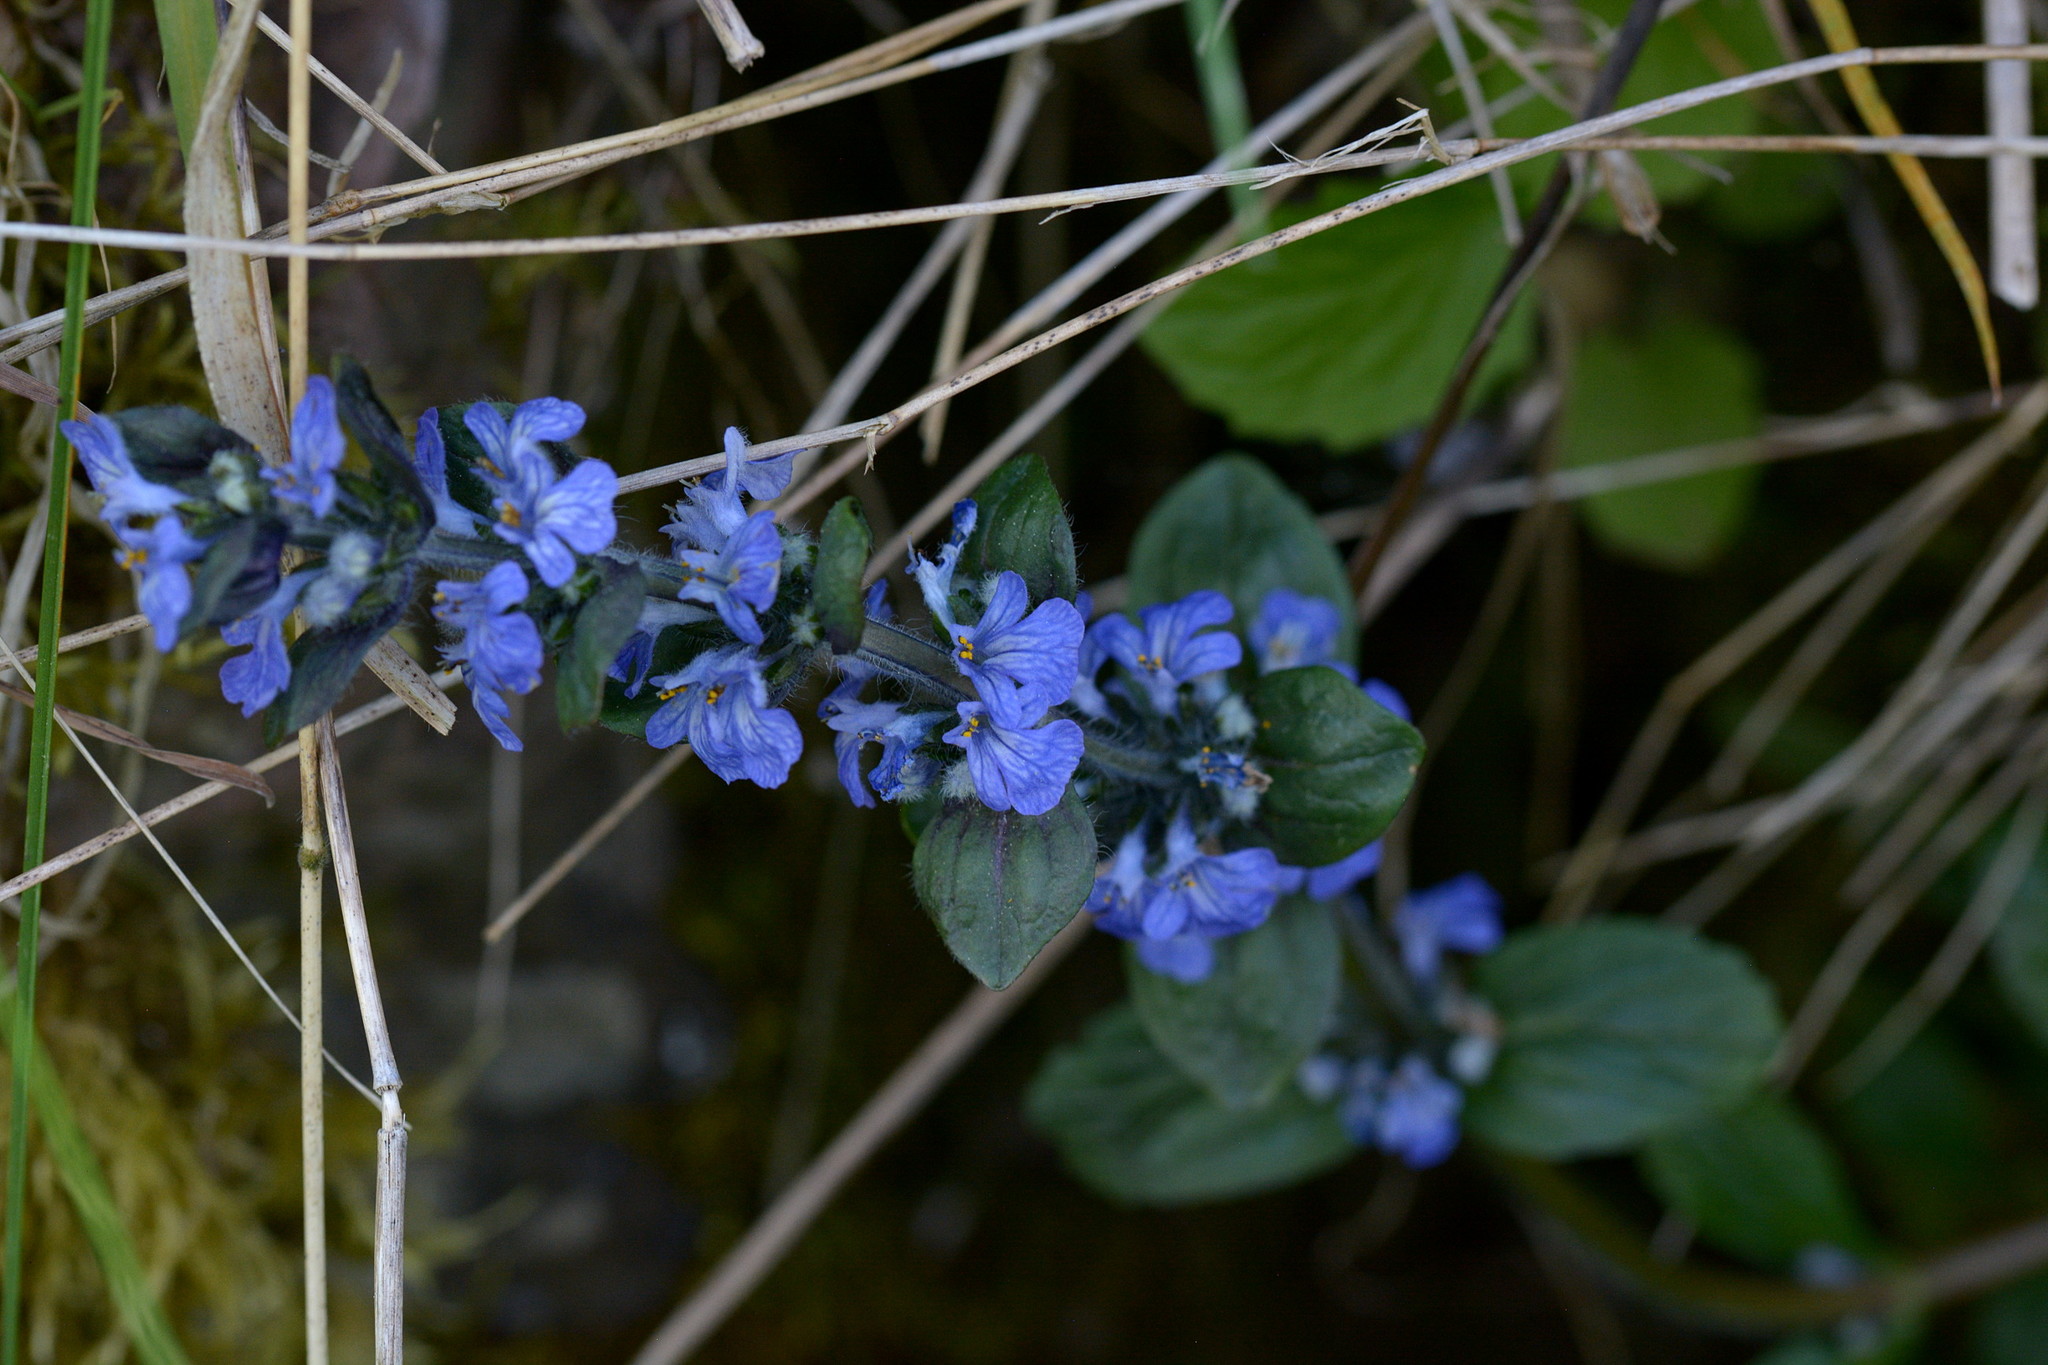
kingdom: Plantae
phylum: Tracheophyta
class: Magnoliopsida
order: Lamiales
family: Lamiaceae
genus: Ajuga
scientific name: Ajuga reptans
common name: Bugle
